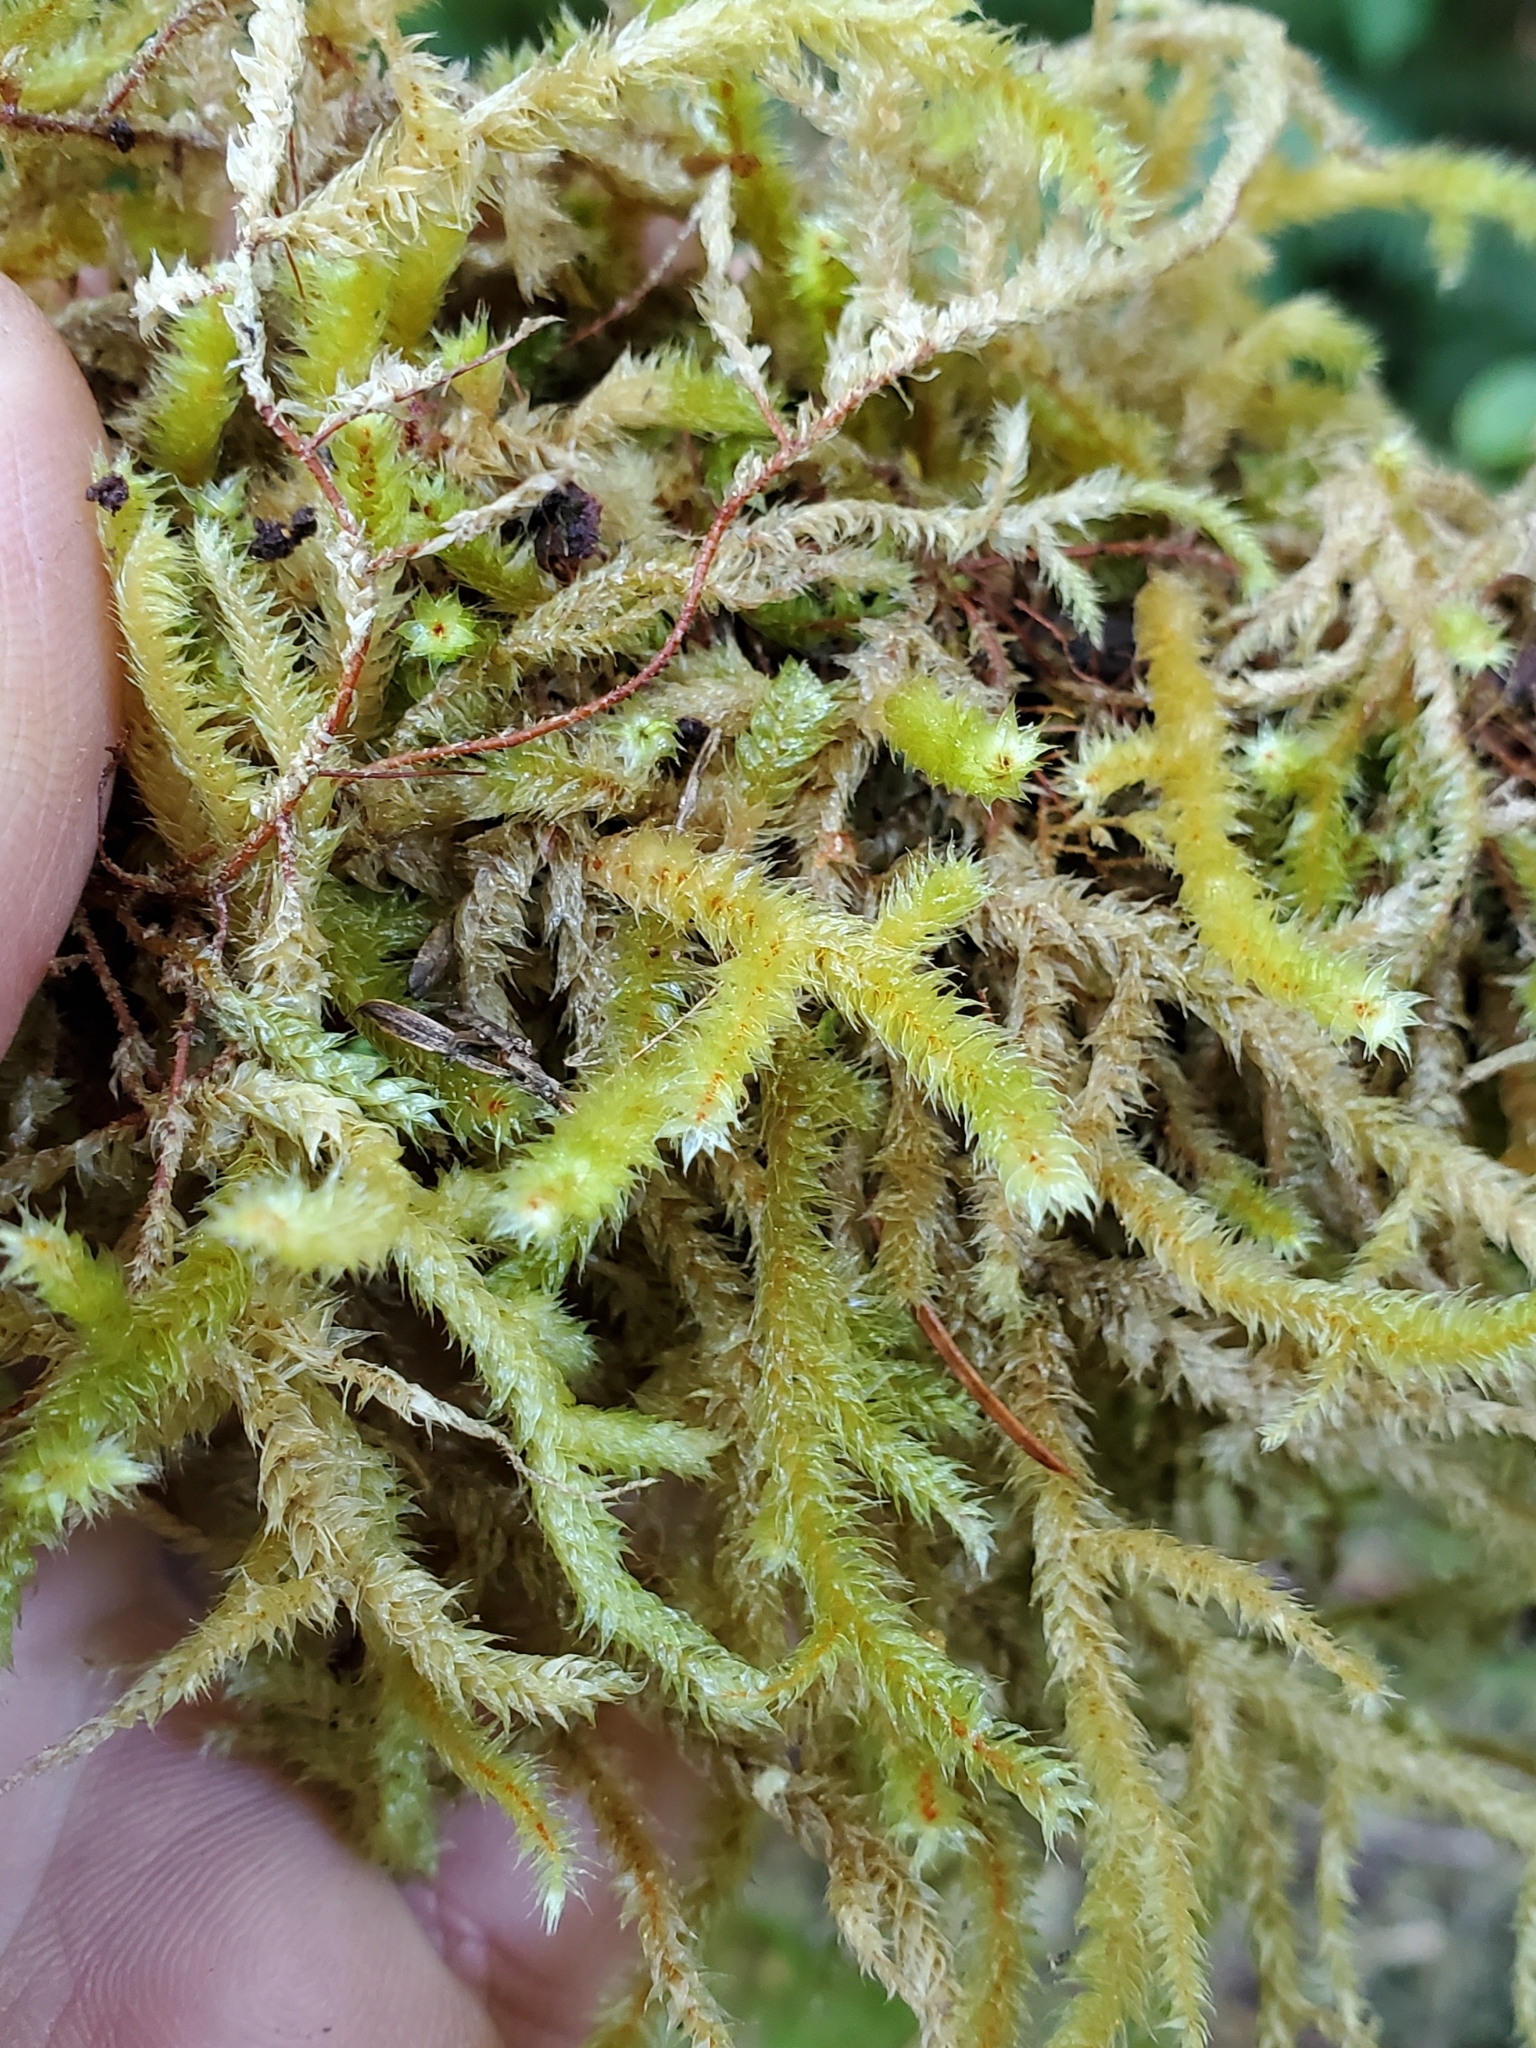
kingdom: Plantae
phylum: Bryophyta
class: Bryopsida
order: Hypnales
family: Antitrichiaceae
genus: Antitrichia
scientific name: Antitrichia curtipendula
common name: Pendulous wing-moss
